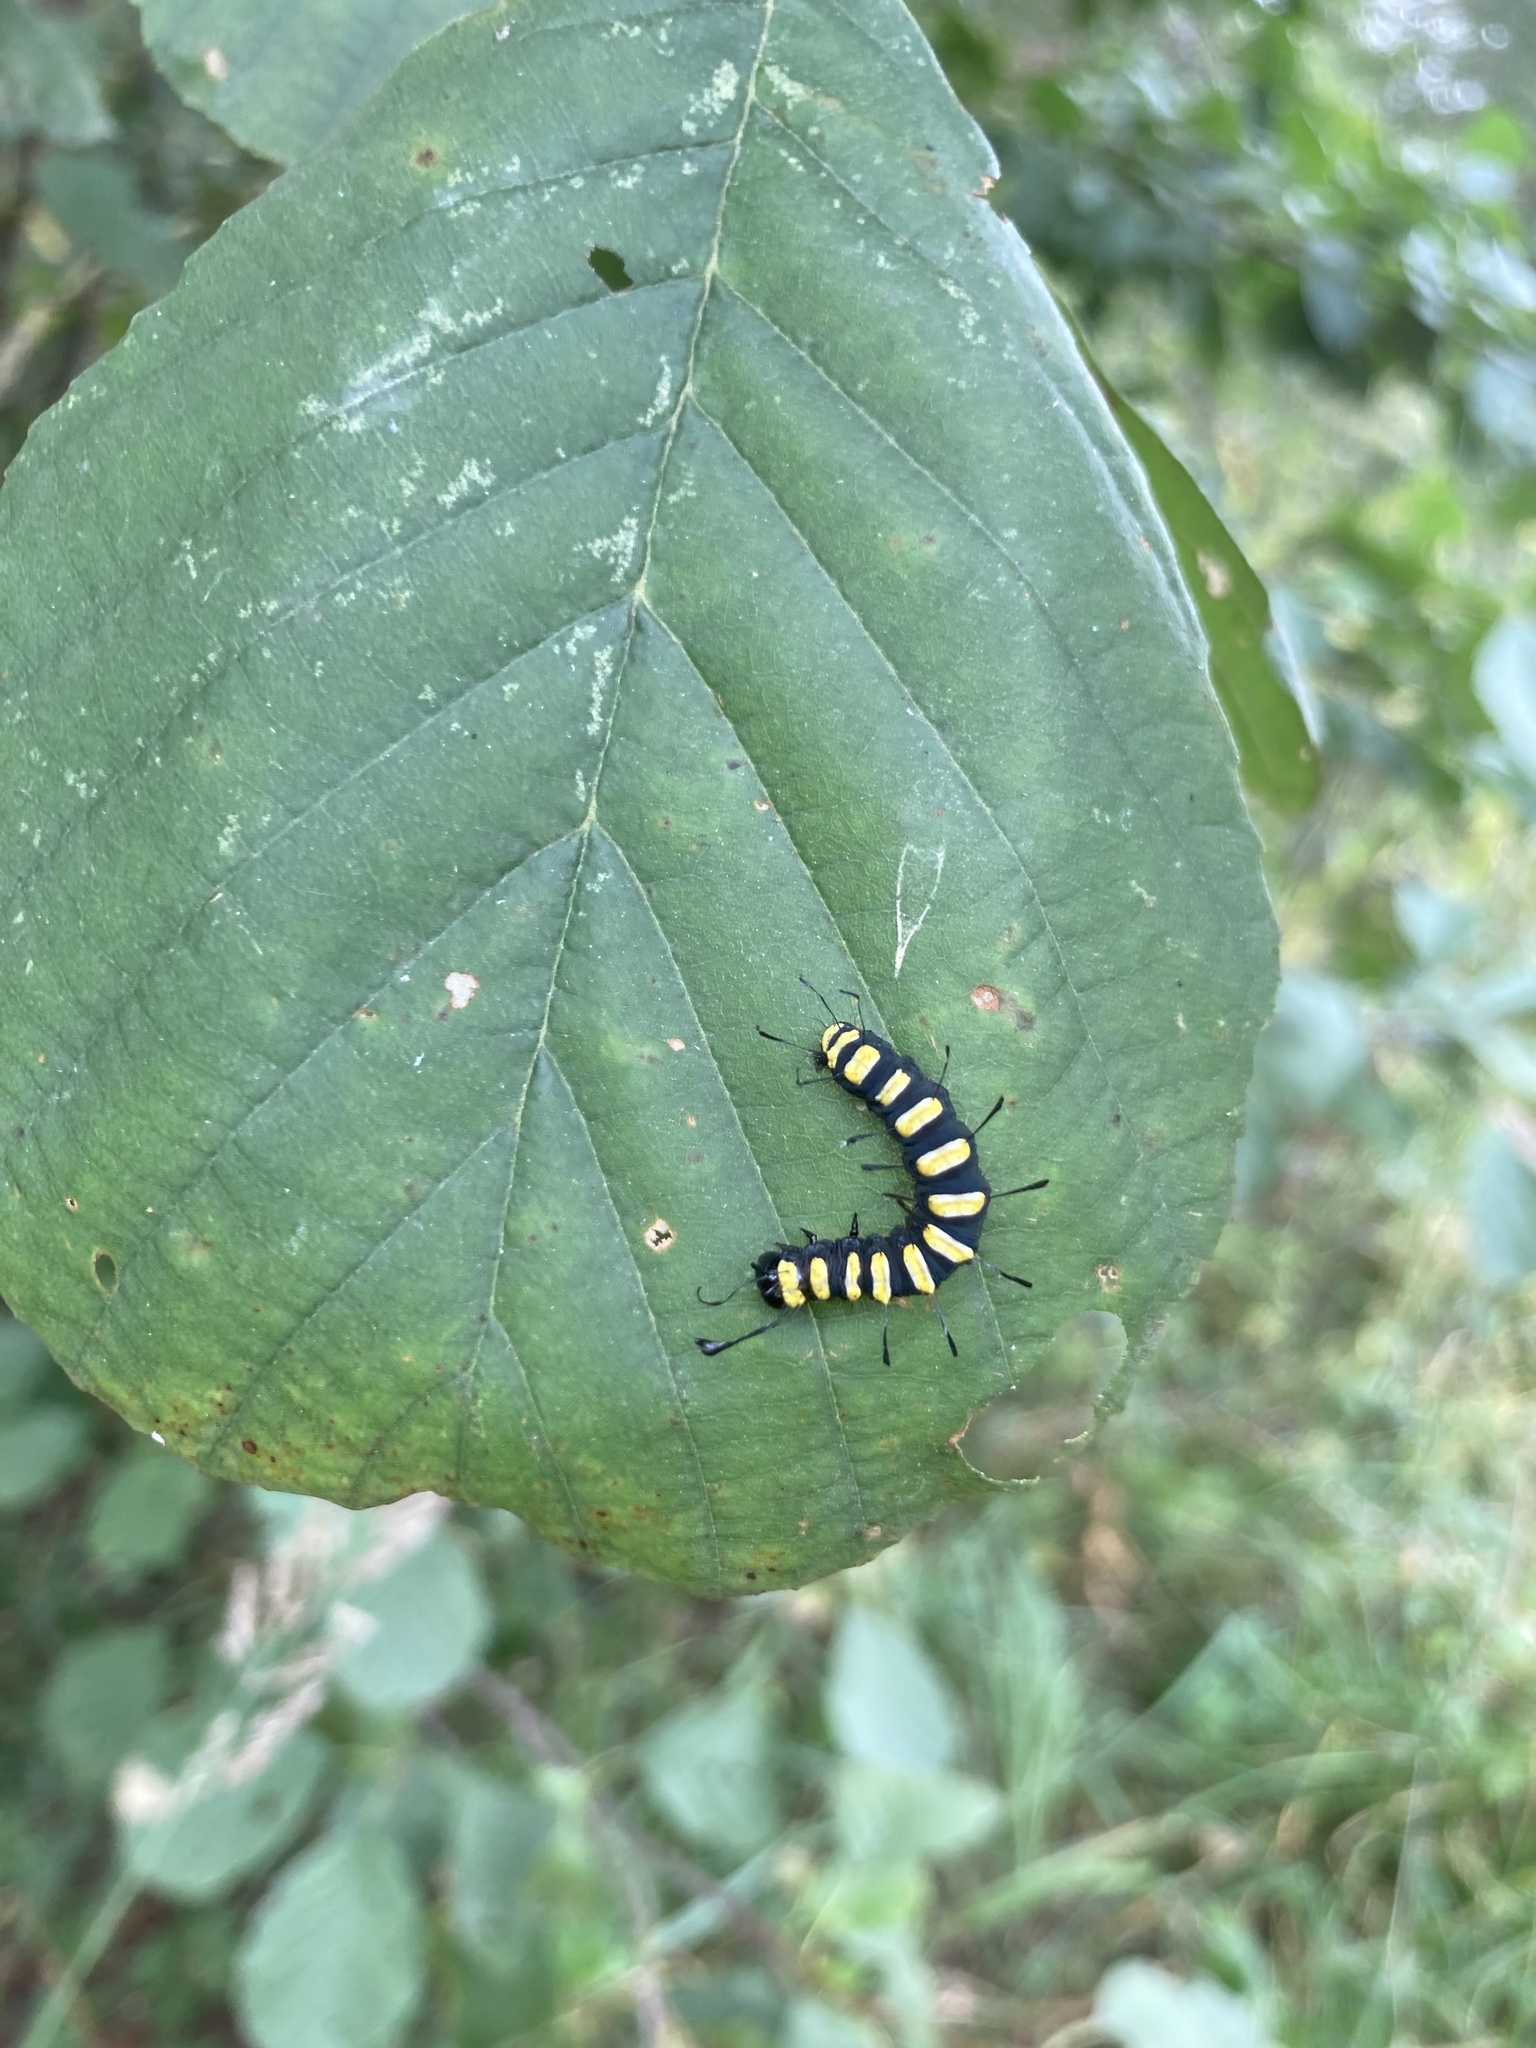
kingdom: Animalia
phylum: Arthropoda
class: Insecta
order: Lepidoptera
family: Noctuidae
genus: Acronicta
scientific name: Acronicta alni
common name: Alder moth
